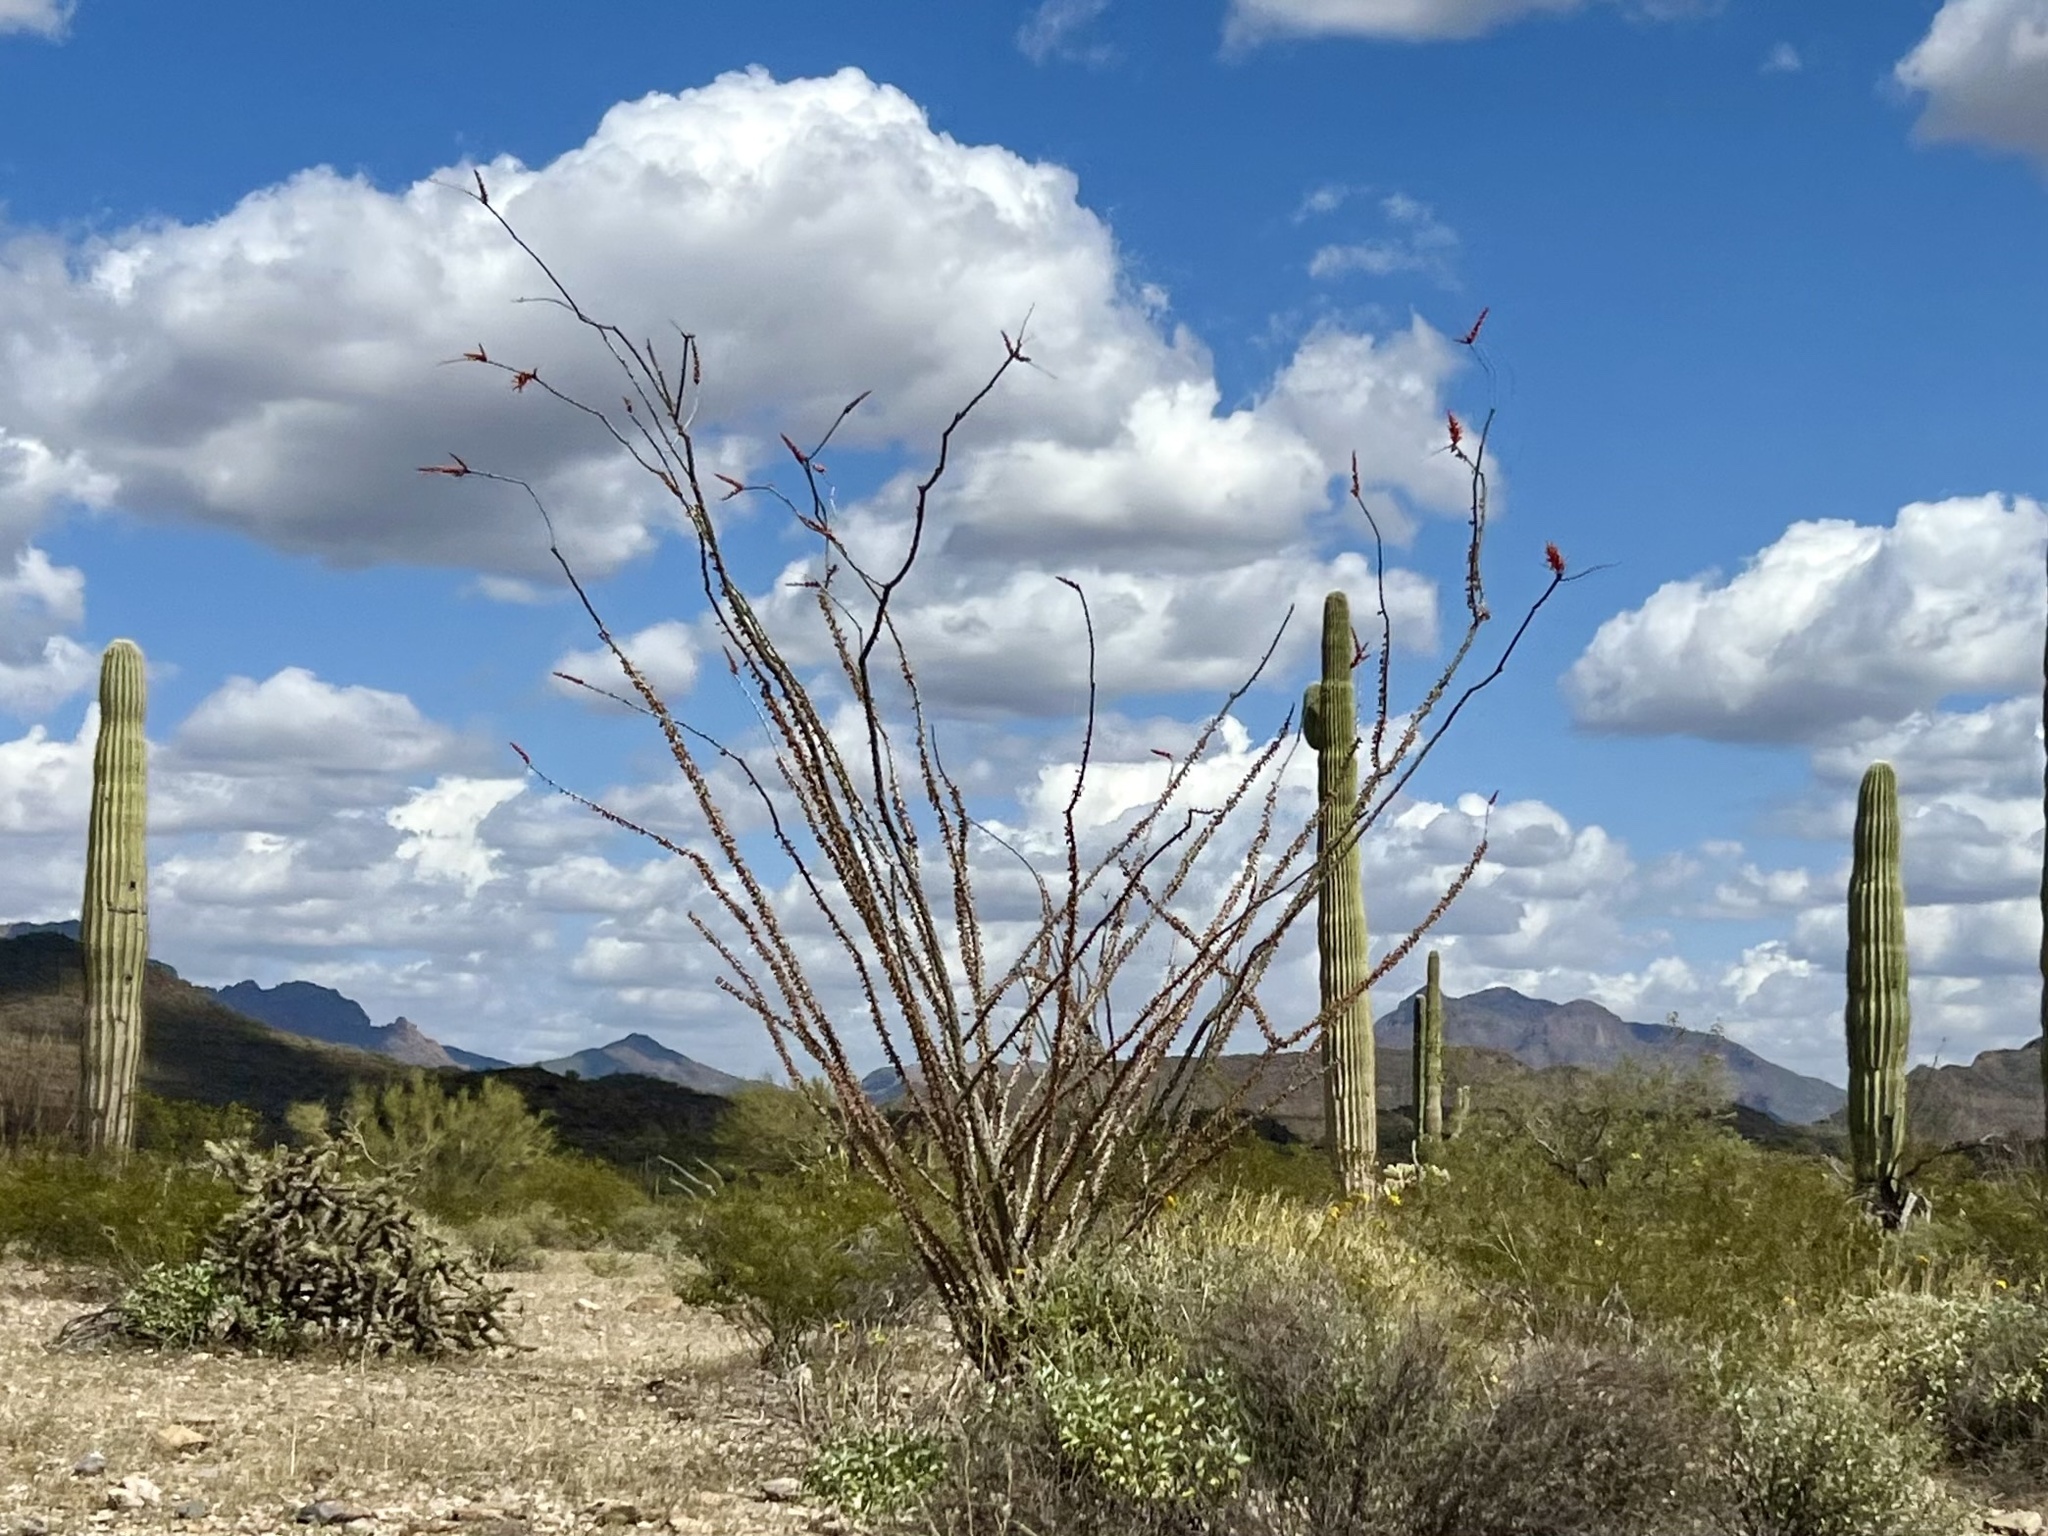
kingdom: Plantae
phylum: Tracheophyta
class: Magnoliopsida
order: Ericales
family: Fouquieriaceae
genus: Fouquieria
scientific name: Fouquieria splendens
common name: Vine-cactus
